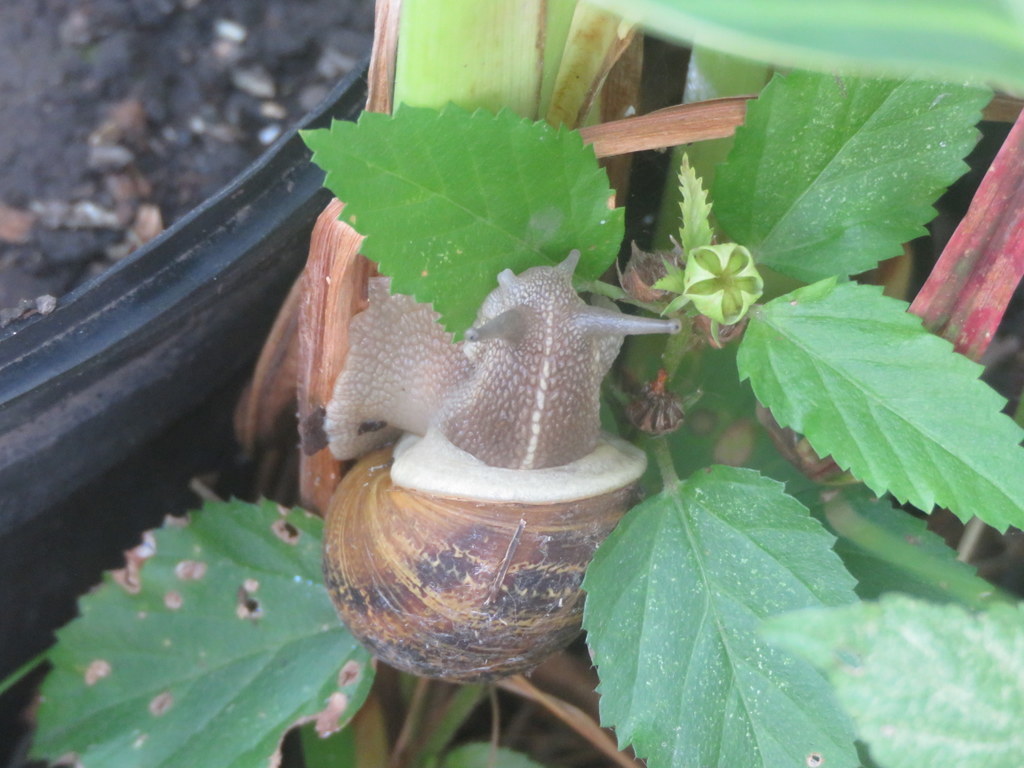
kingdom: Animalia
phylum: Mollusca
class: Gastropoda
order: Stylommatophora
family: Helicidae
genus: Cornu
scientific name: Cornu aspersum
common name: Brown garden snail
